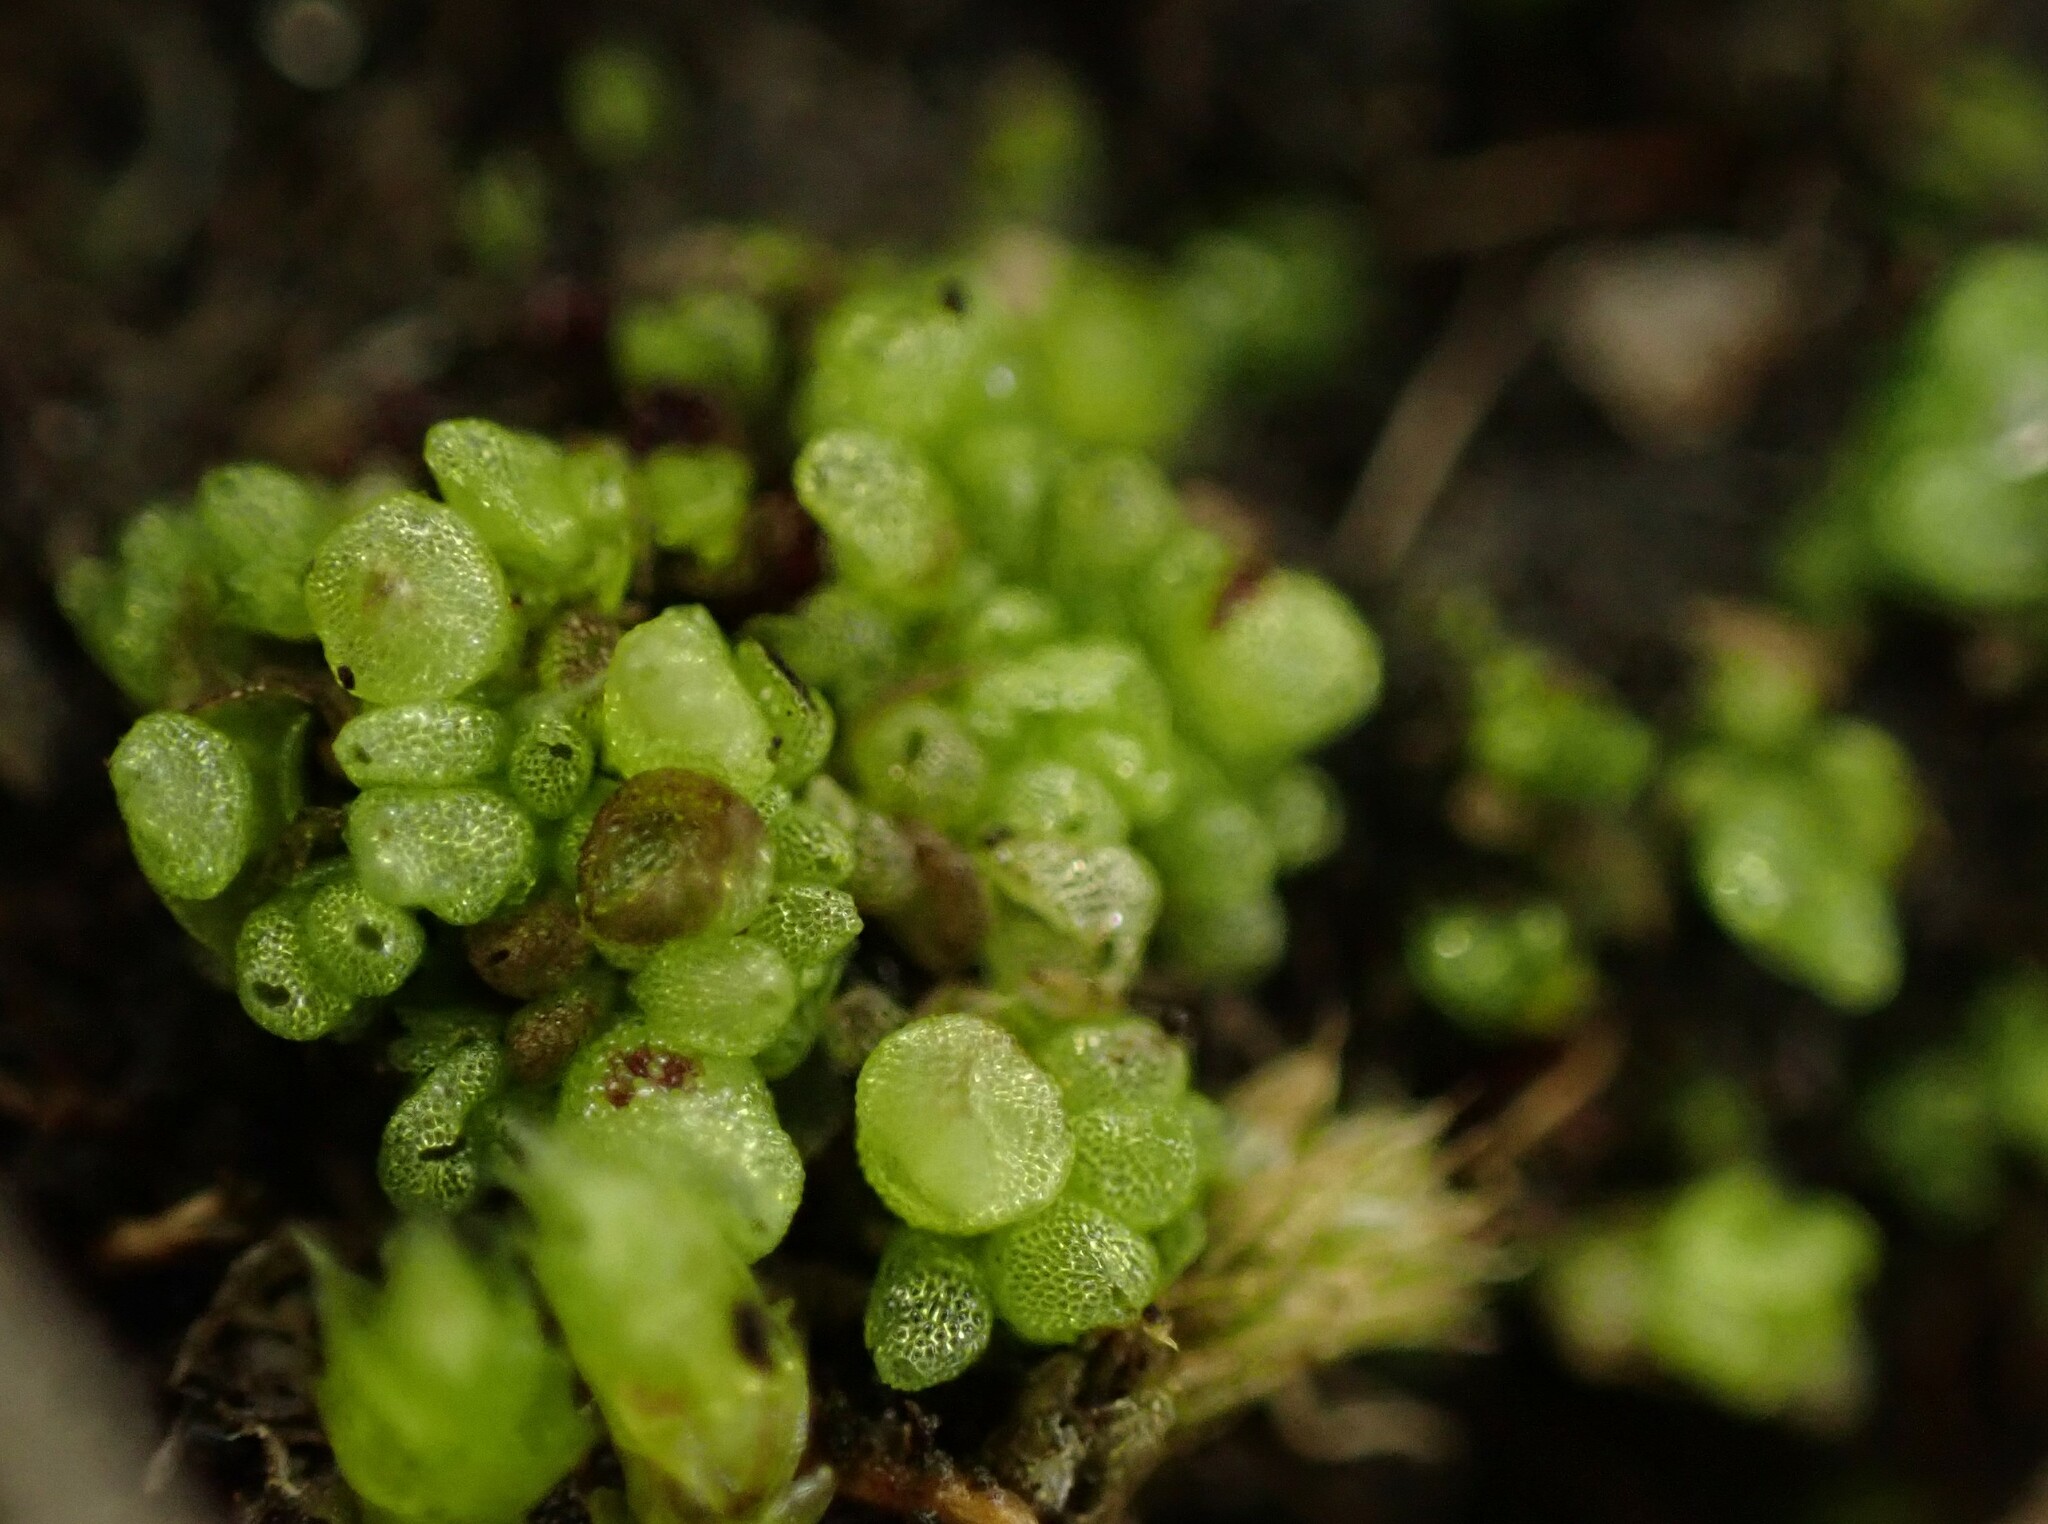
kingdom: Plantae
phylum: Marchantiophyta
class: Marchantiopsida
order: Sphaerocarpales
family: Sphaerocarpaceae
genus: Sphaerocarpos
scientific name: Sphaerocarpos texanus
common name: Texas balloonwort
